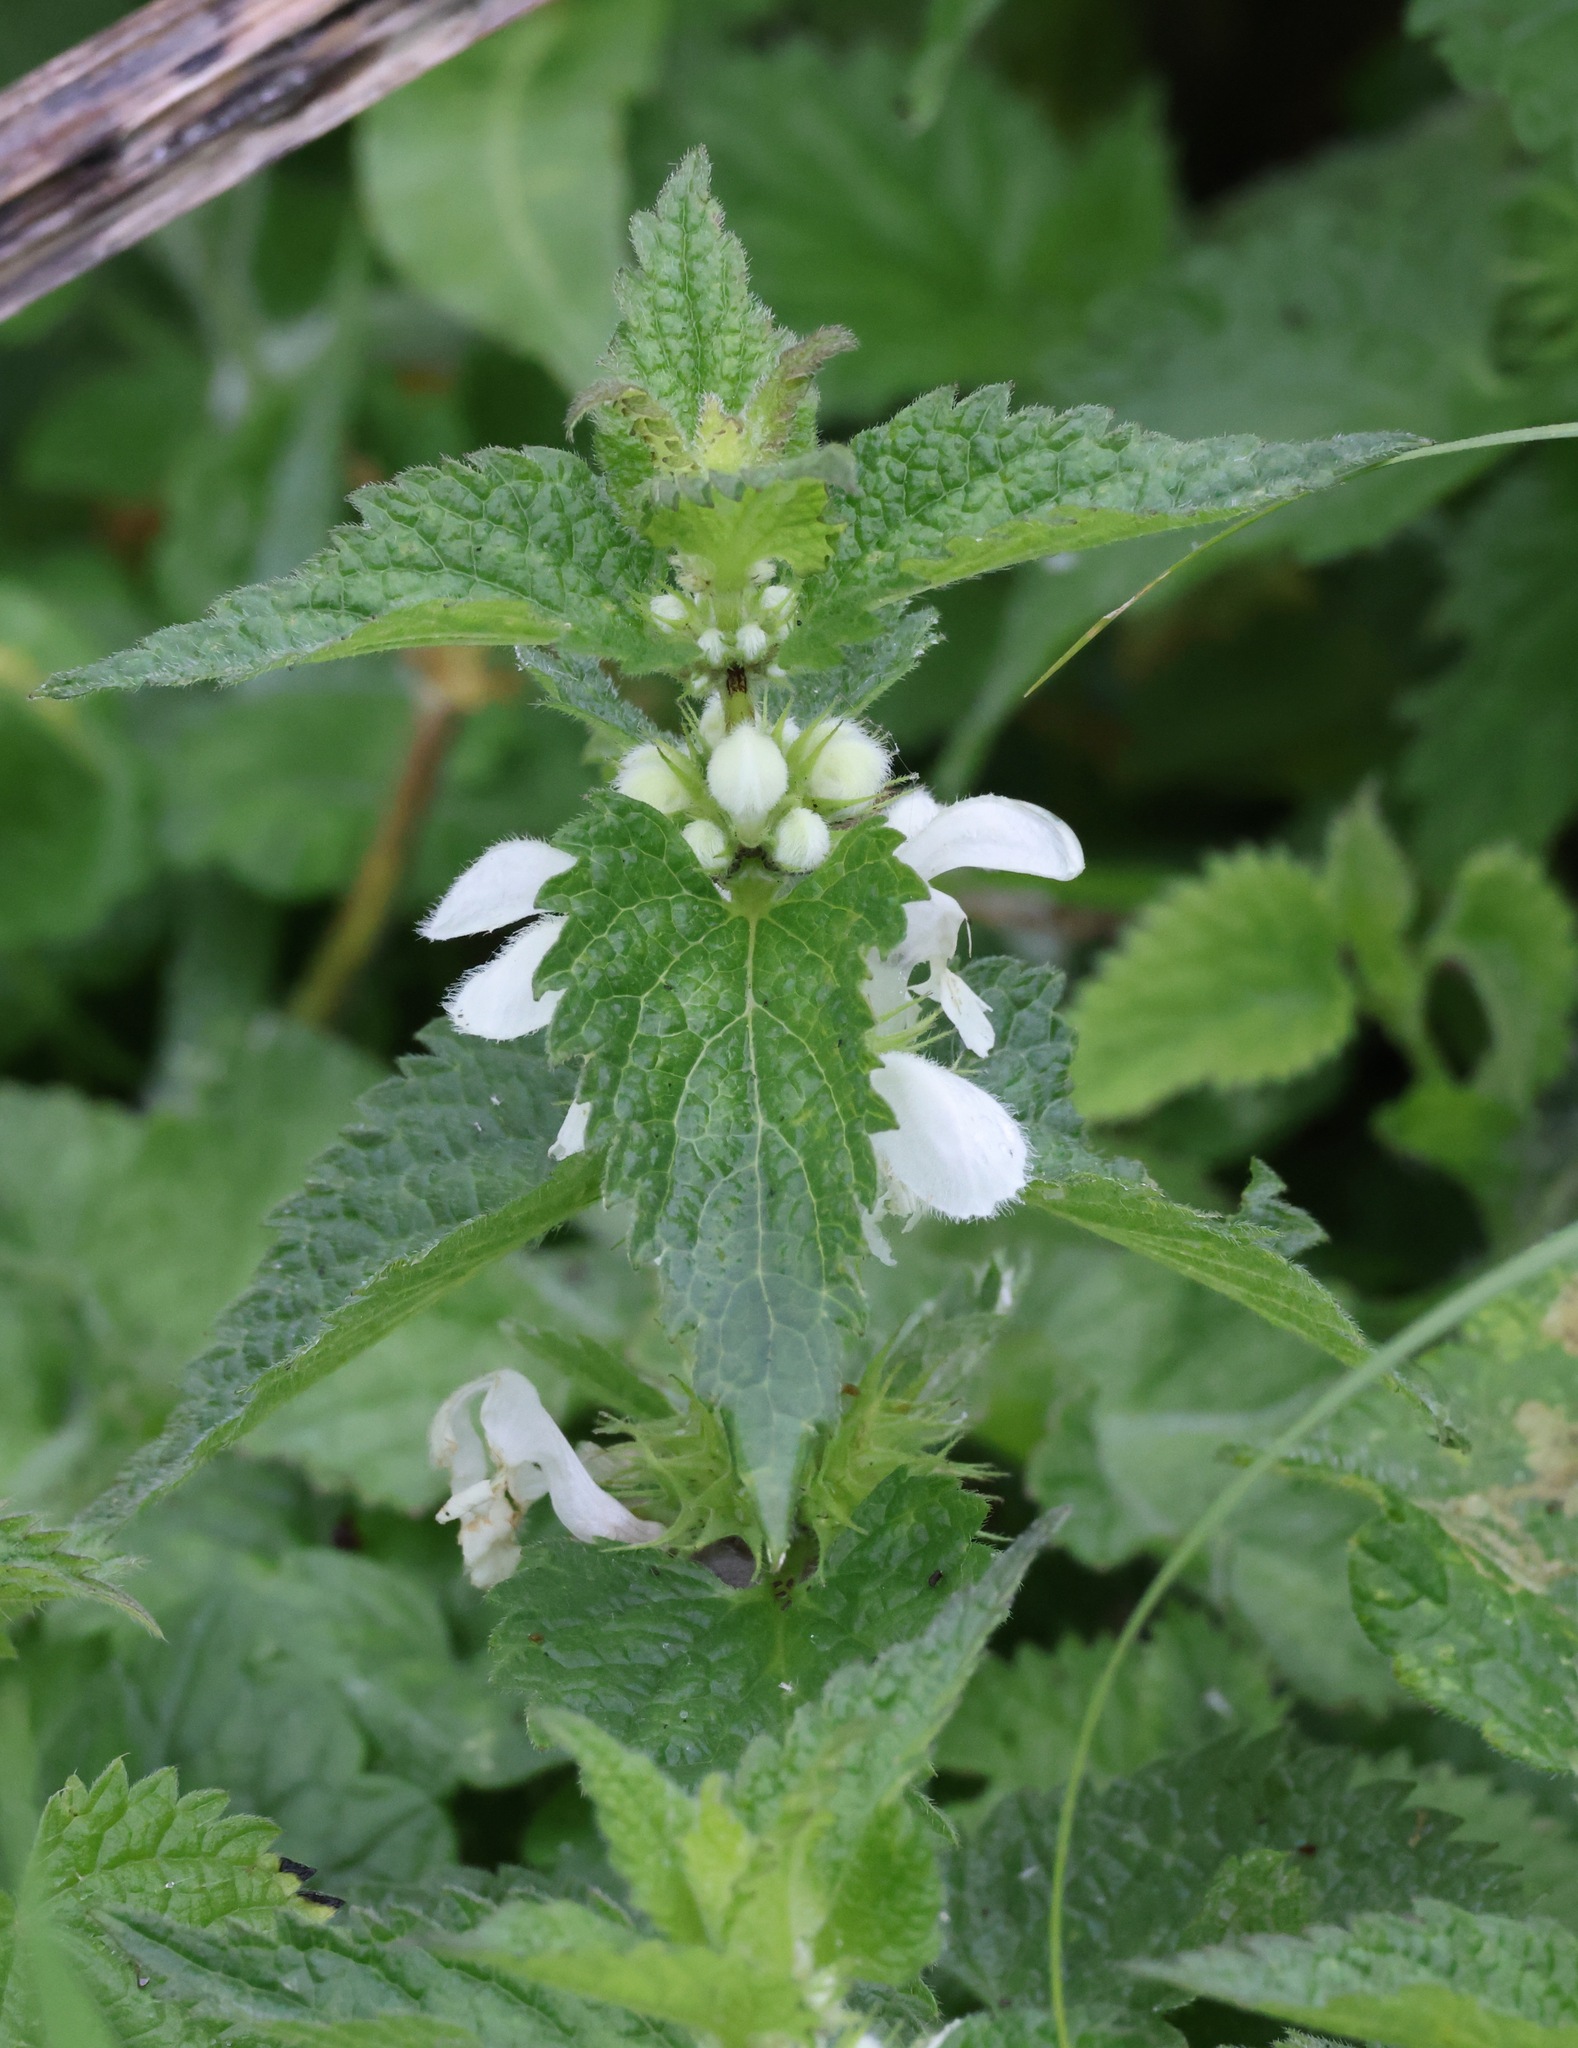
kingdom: Plantae
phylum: Tracheophyta
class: Magnoliopsida
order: Lamiales
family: Lamiaceae
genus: Lamium
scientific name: Lamium album
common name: White dead-nettle
